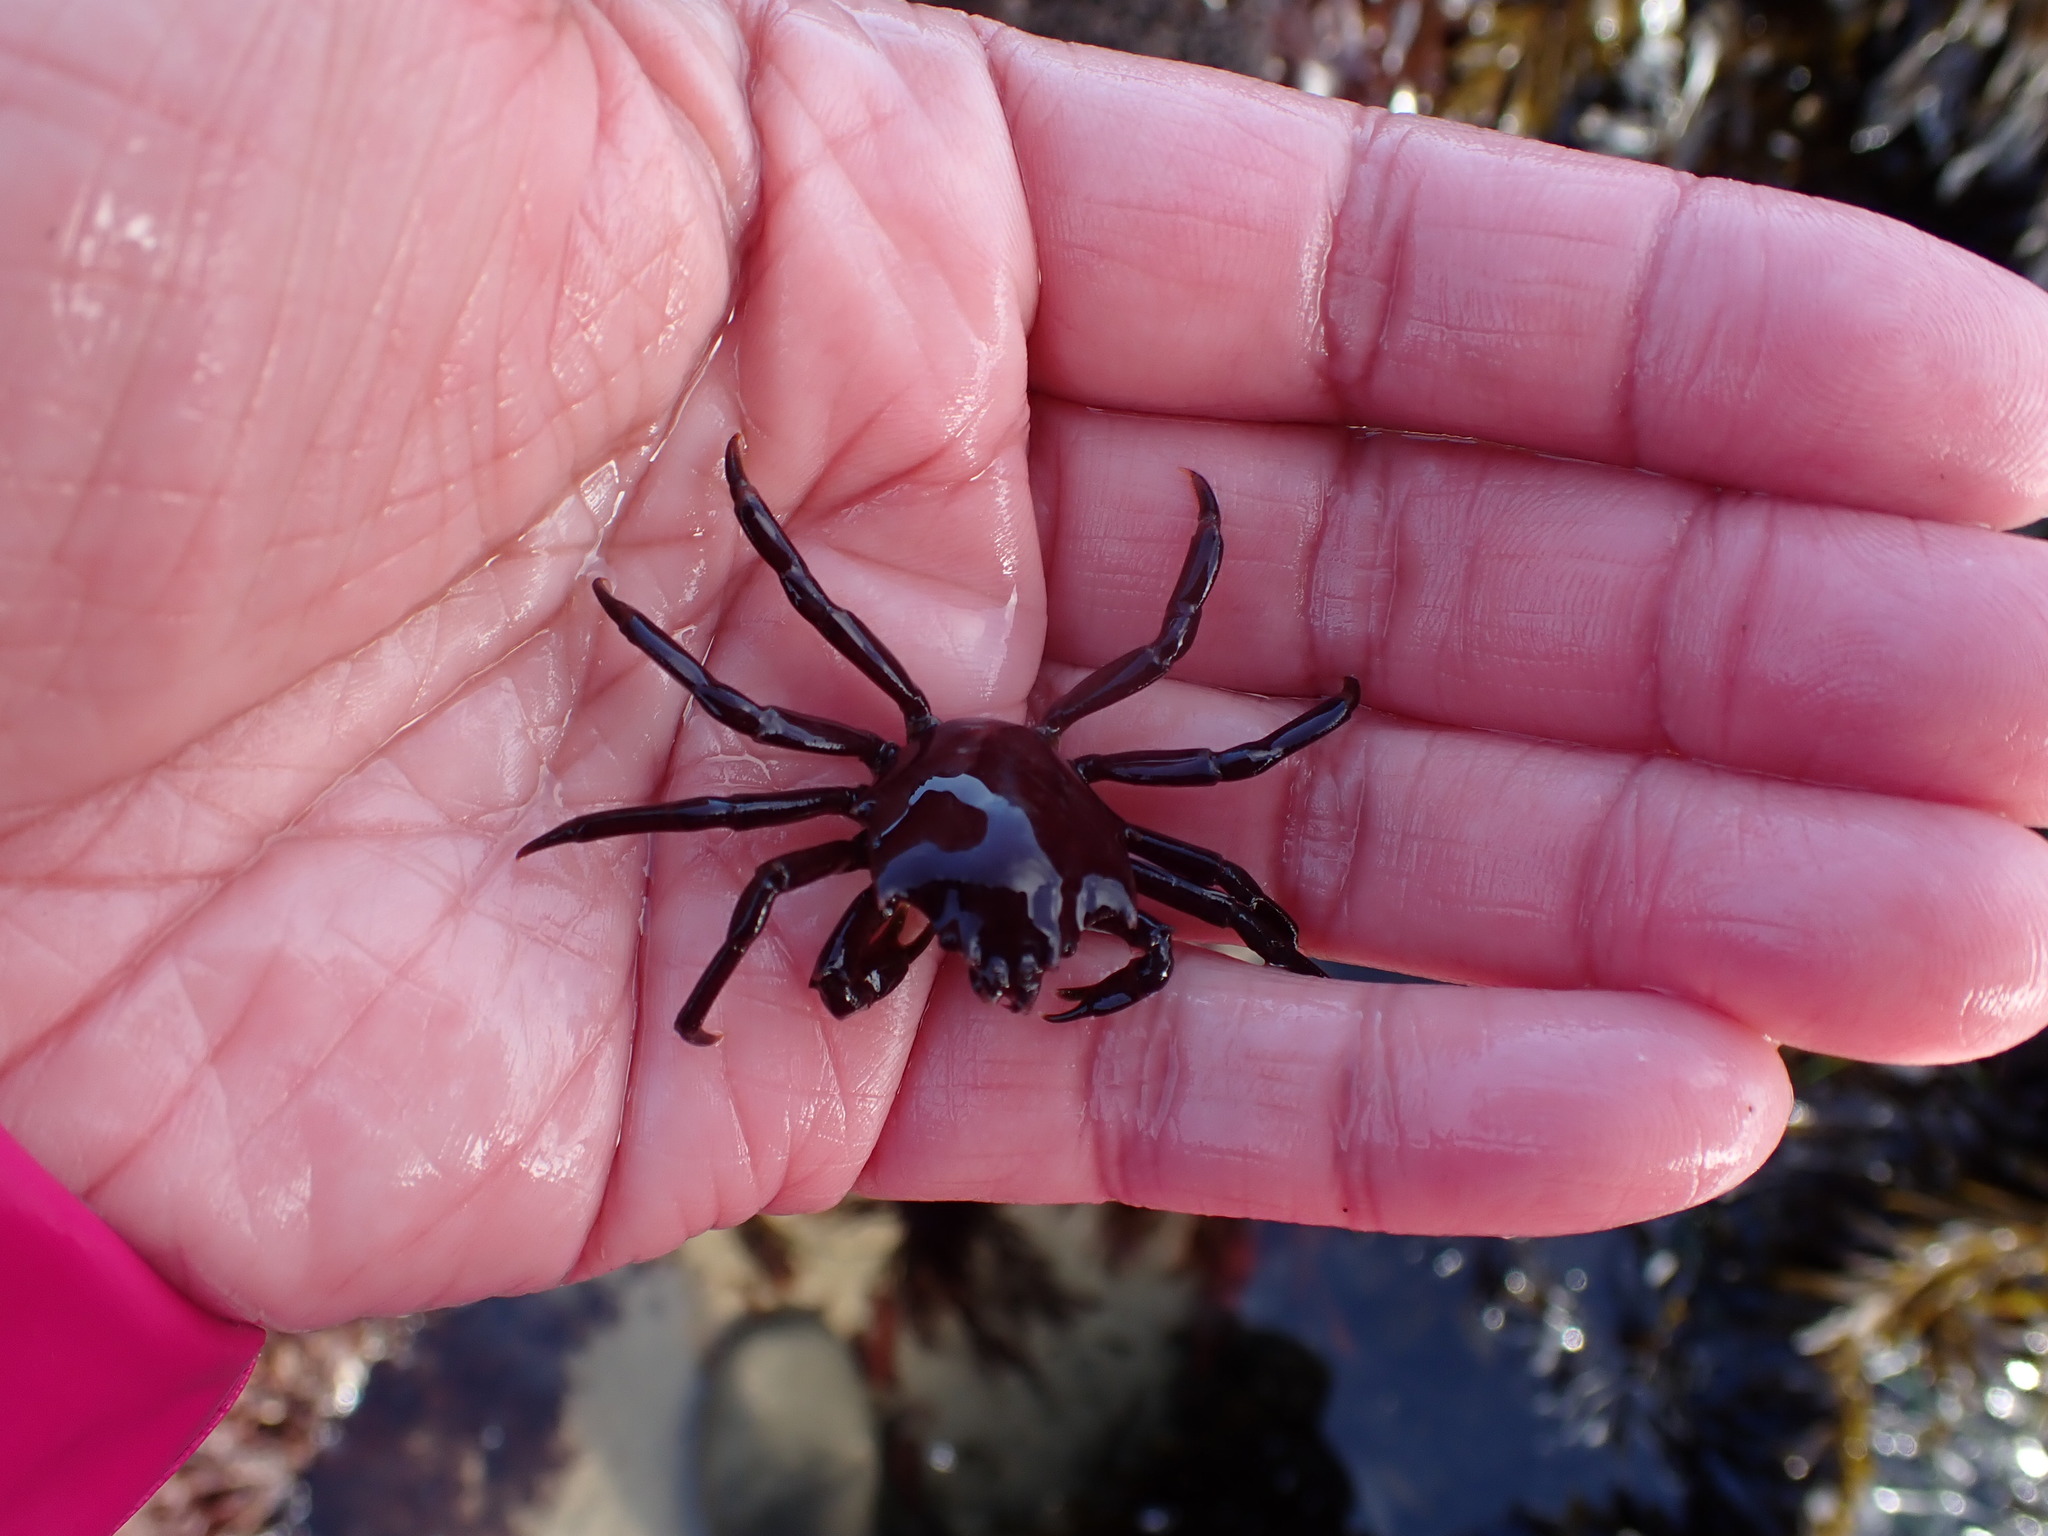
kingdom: Animalia
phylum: Arthropoda
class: Malacostraca
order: Decapoda
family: Epialtidae
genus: Pugettia
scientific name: Pugettia producta
